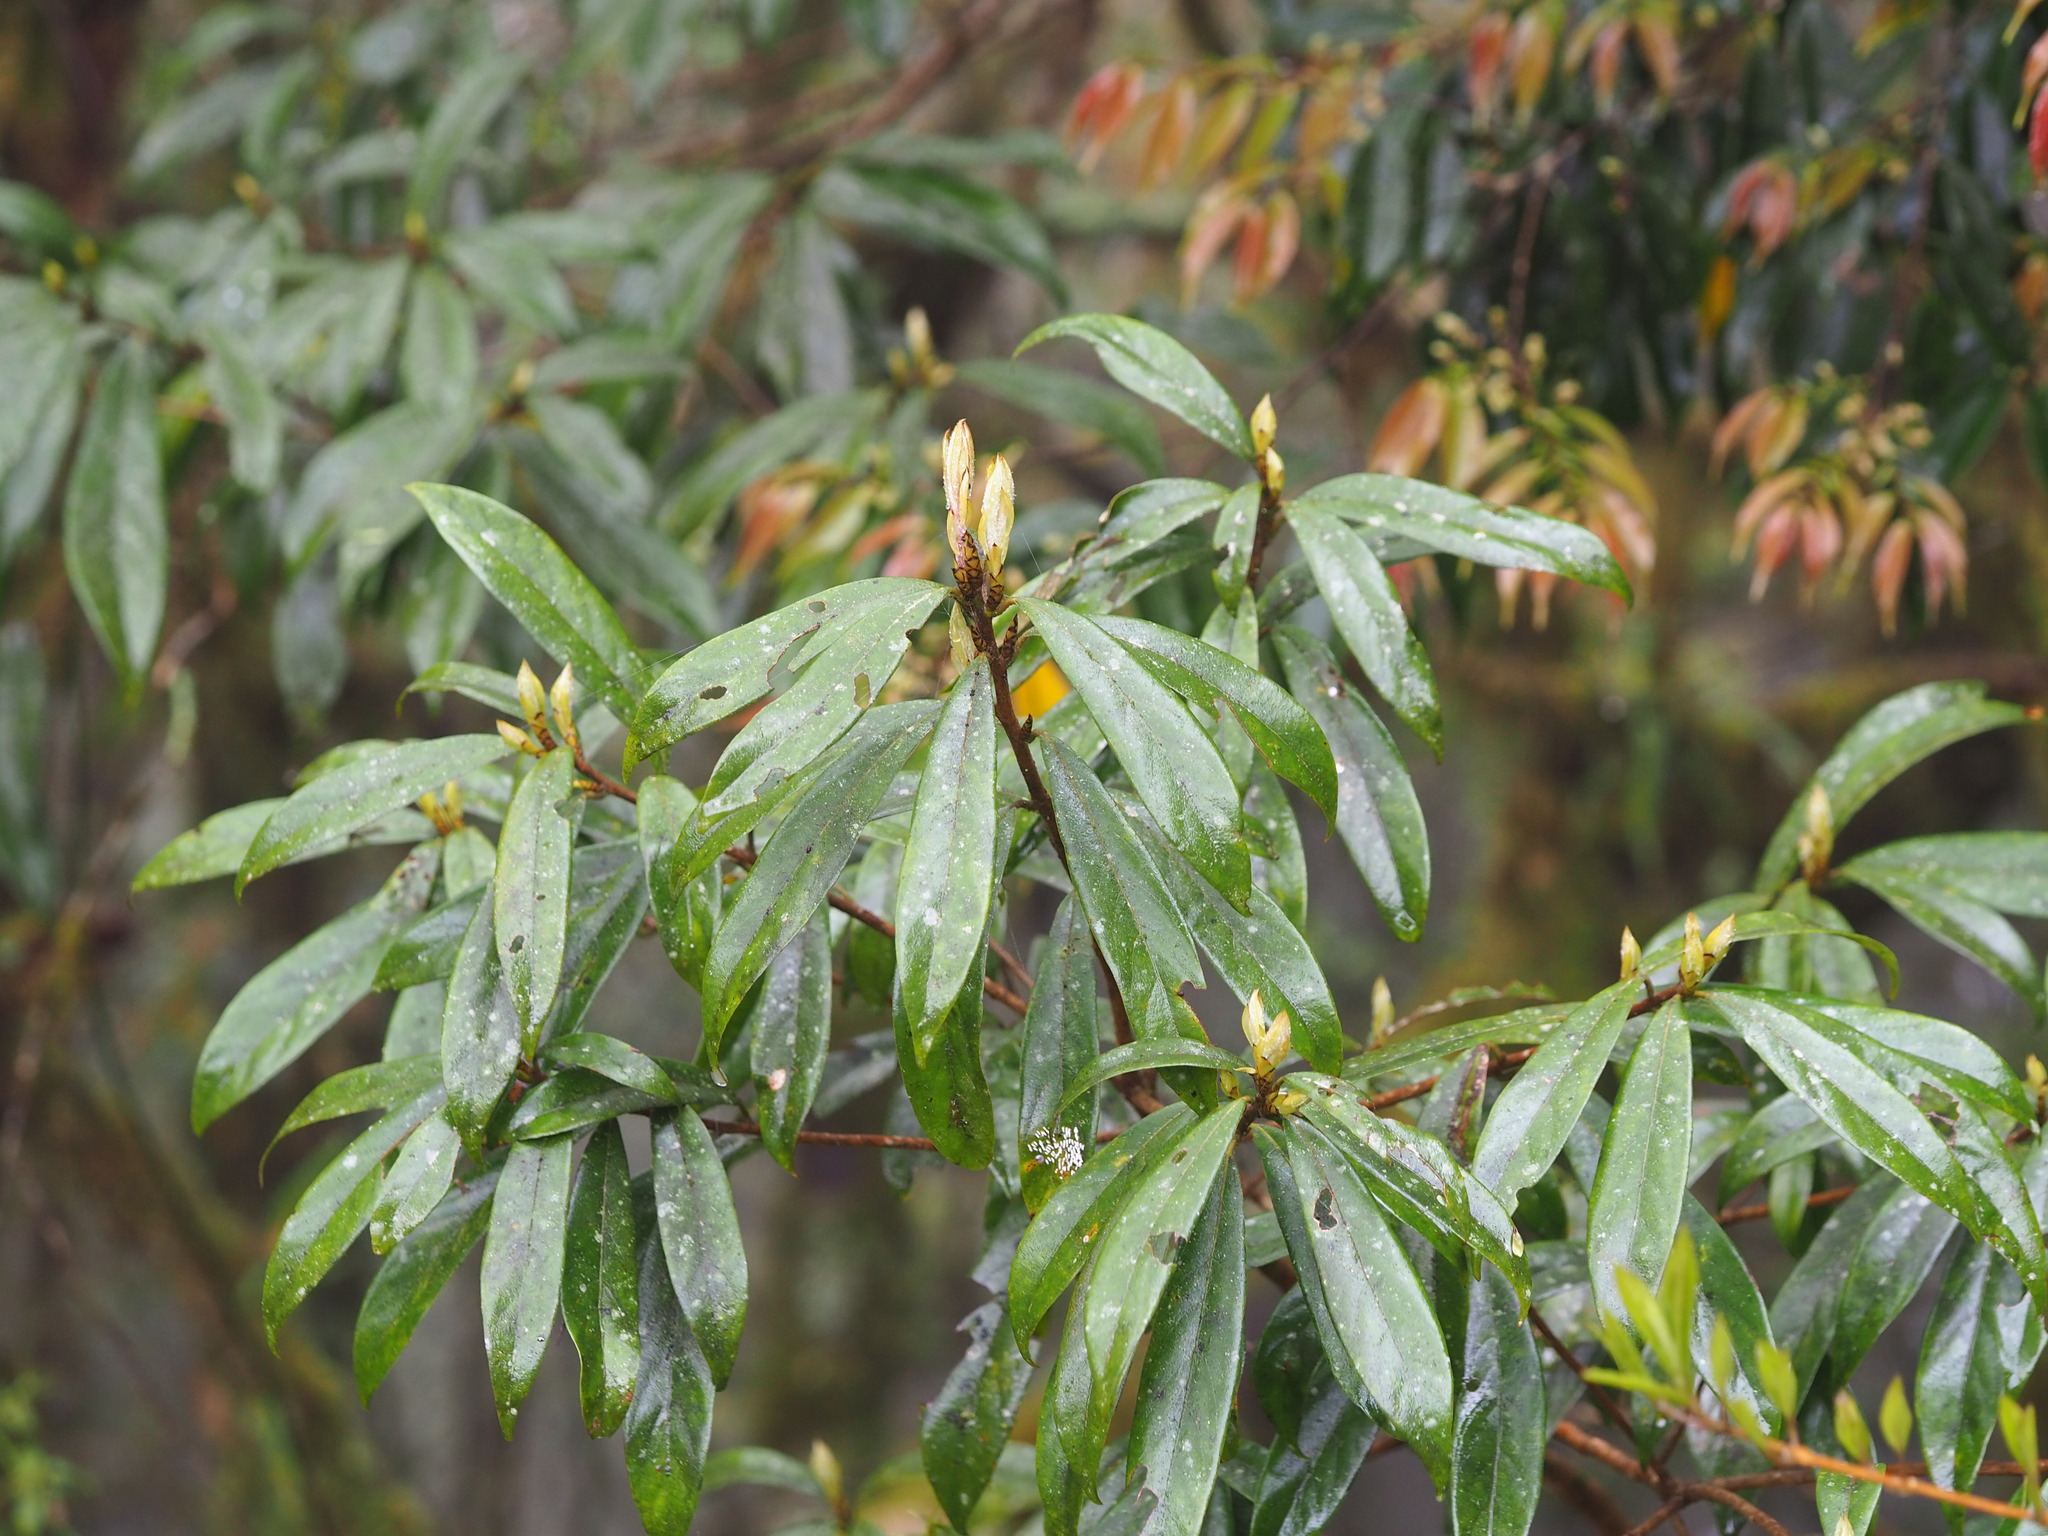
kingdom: Plantae
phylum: Tracheophyta
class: Magnoliopsida
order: Laurales
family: Lauraceae
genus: Actinodaphne
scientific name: Actinodaphne mushaensis
